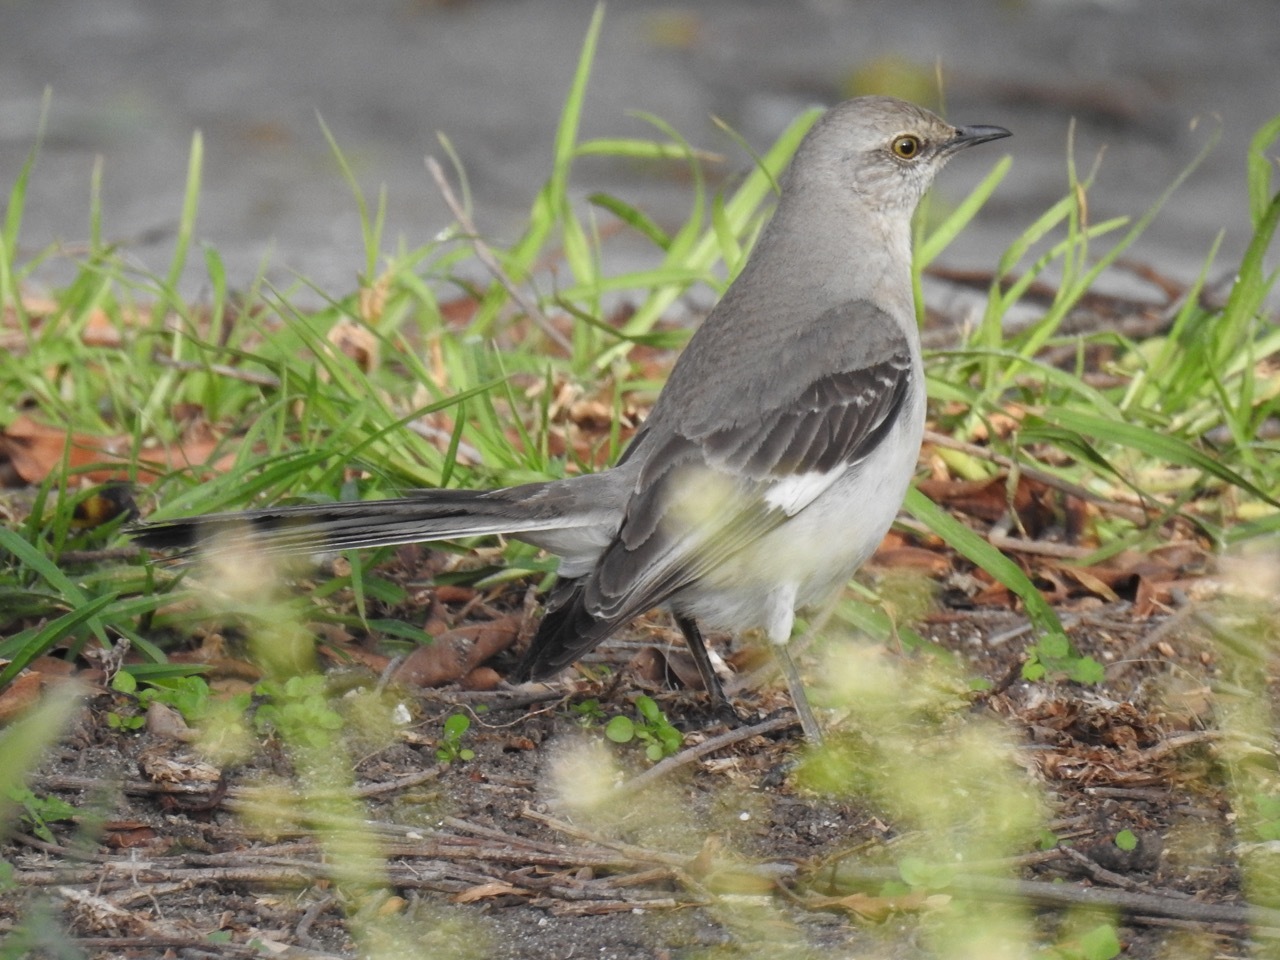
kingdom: Animalia
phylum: Chordata
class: Aves
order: Passeriformes
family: Mimidae
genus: Mimus
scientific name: Mimus polyglottos
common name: Northern mockingbird
